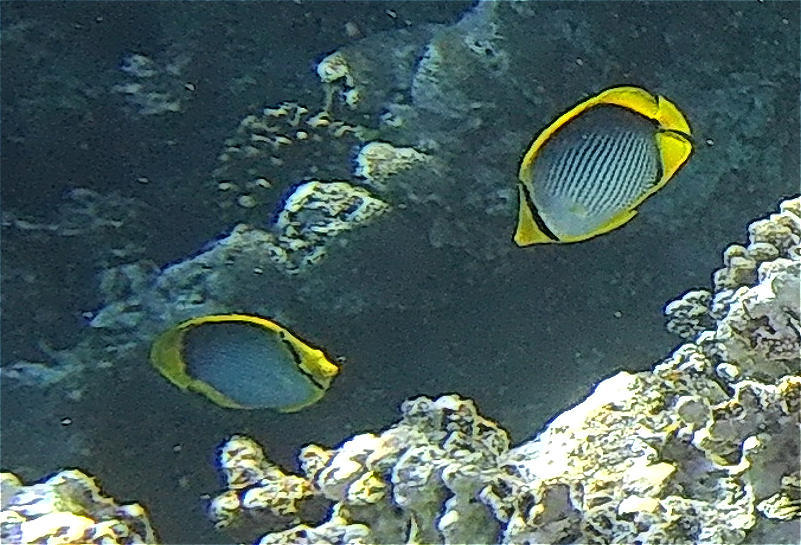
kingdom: Animalia
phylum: Chordata
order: Perciformes
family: Chaetodontidae
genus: Chaetodon
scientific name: Chaetodon melannotus
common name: Blackback butterflyfish
